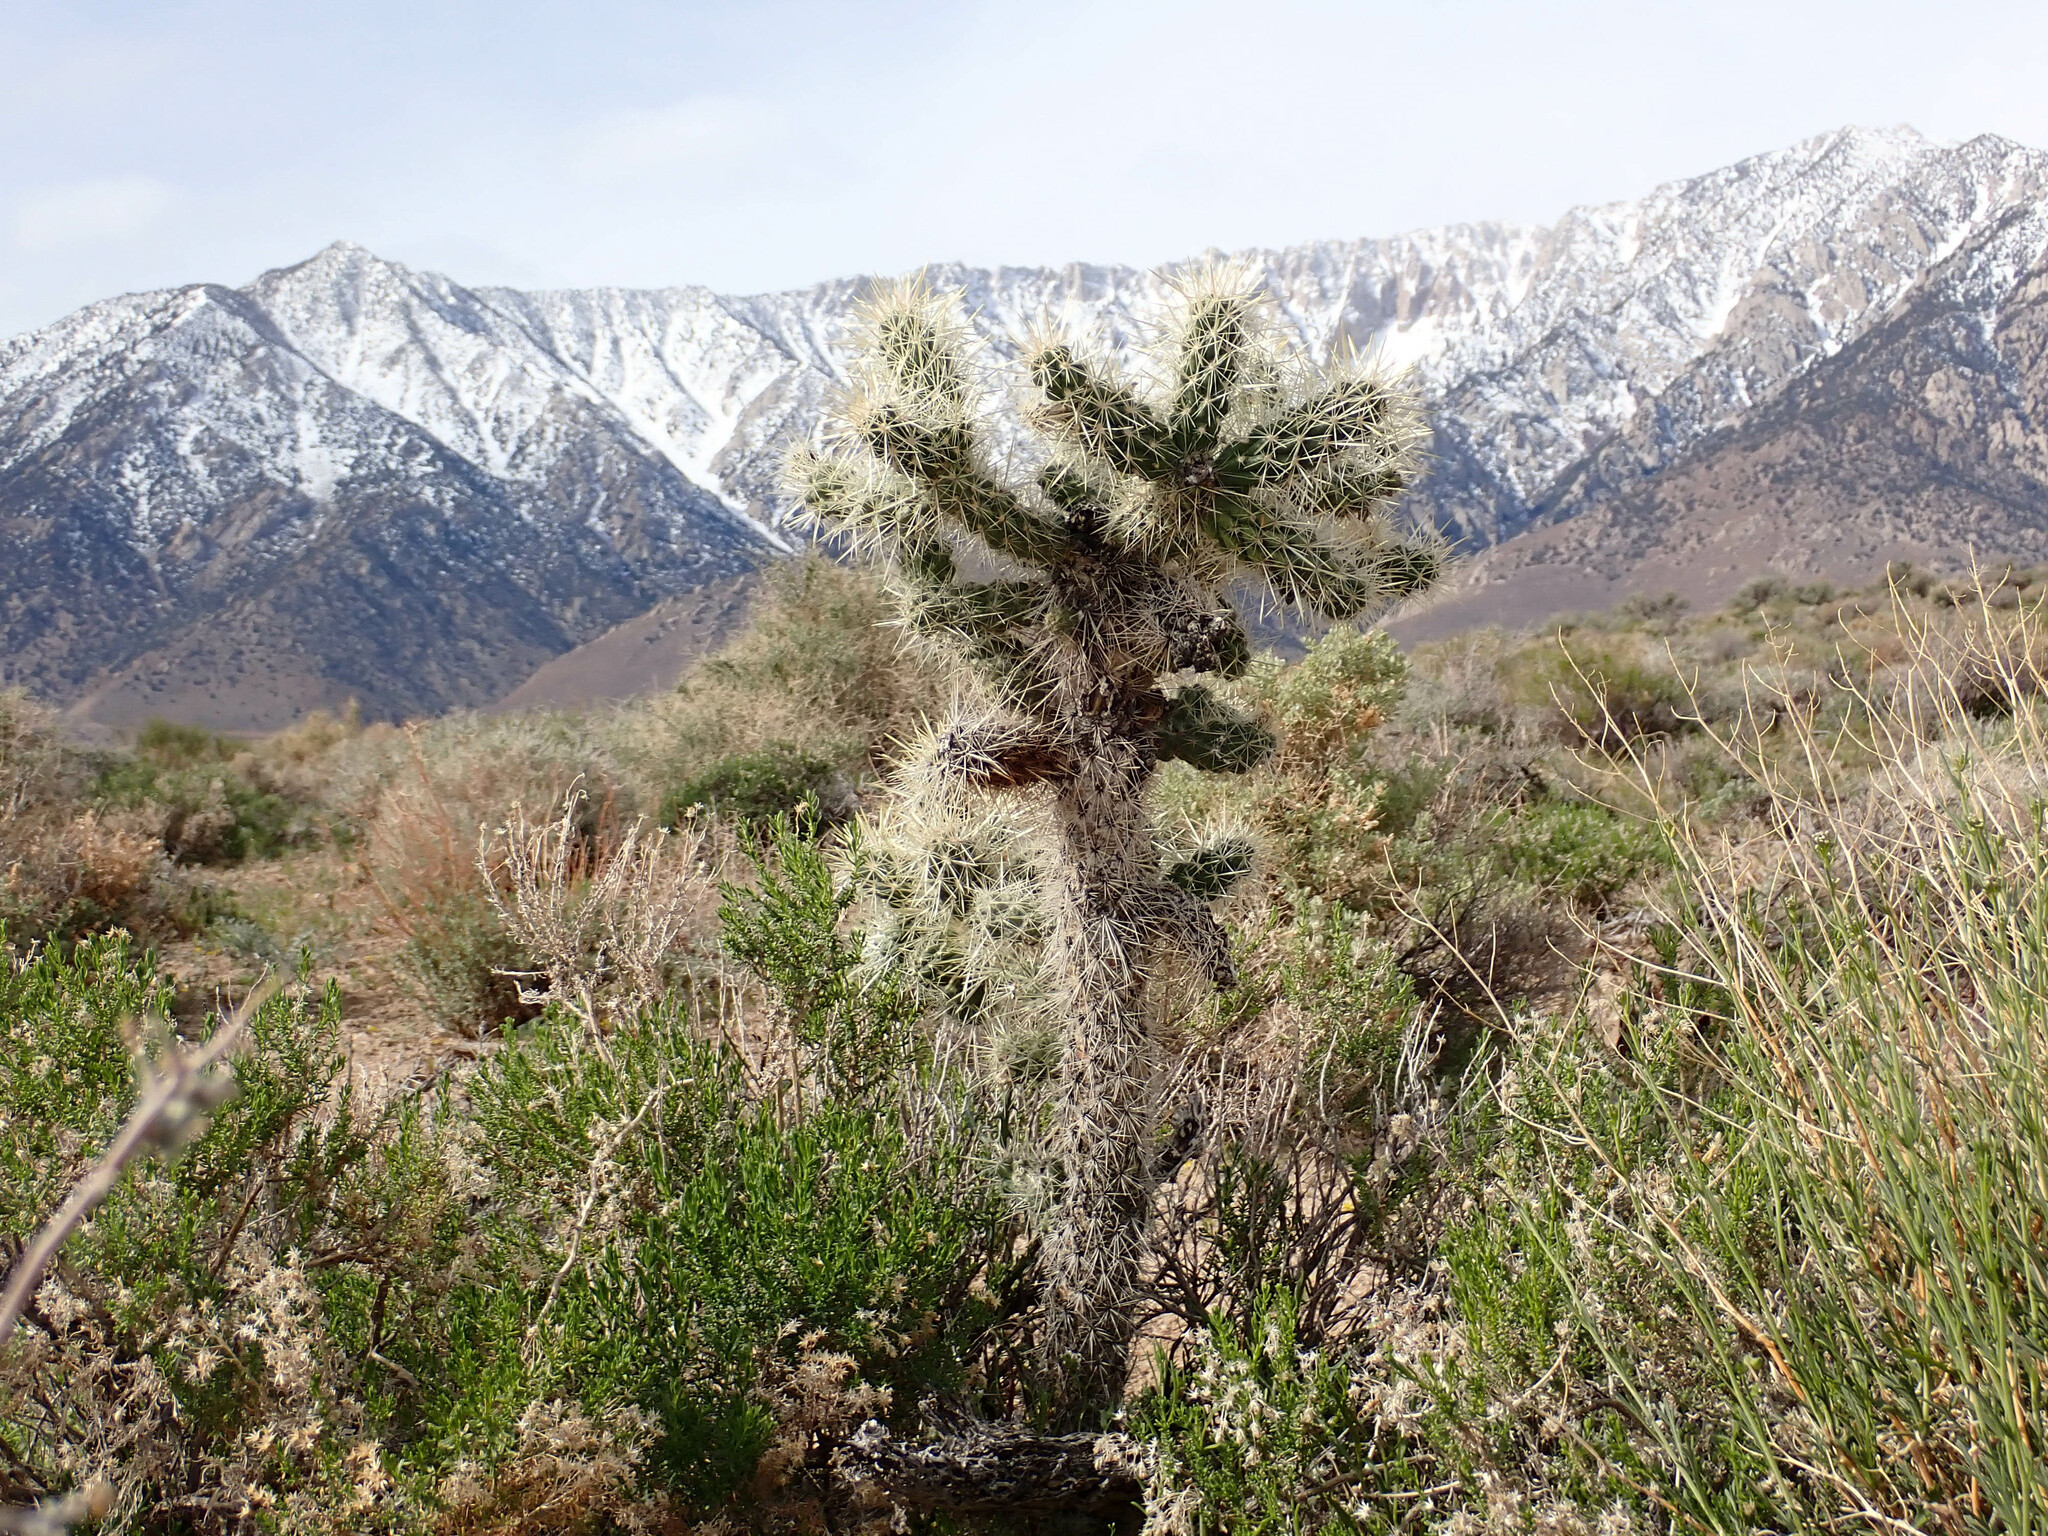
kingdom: Plantae
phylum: Tracheophyta
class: Magnoliopsida
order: Caryophyllales
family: Cactaceae
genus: Cylindropuntia
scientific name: Cylindropuntia echinocarpa
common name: Ground cholla
